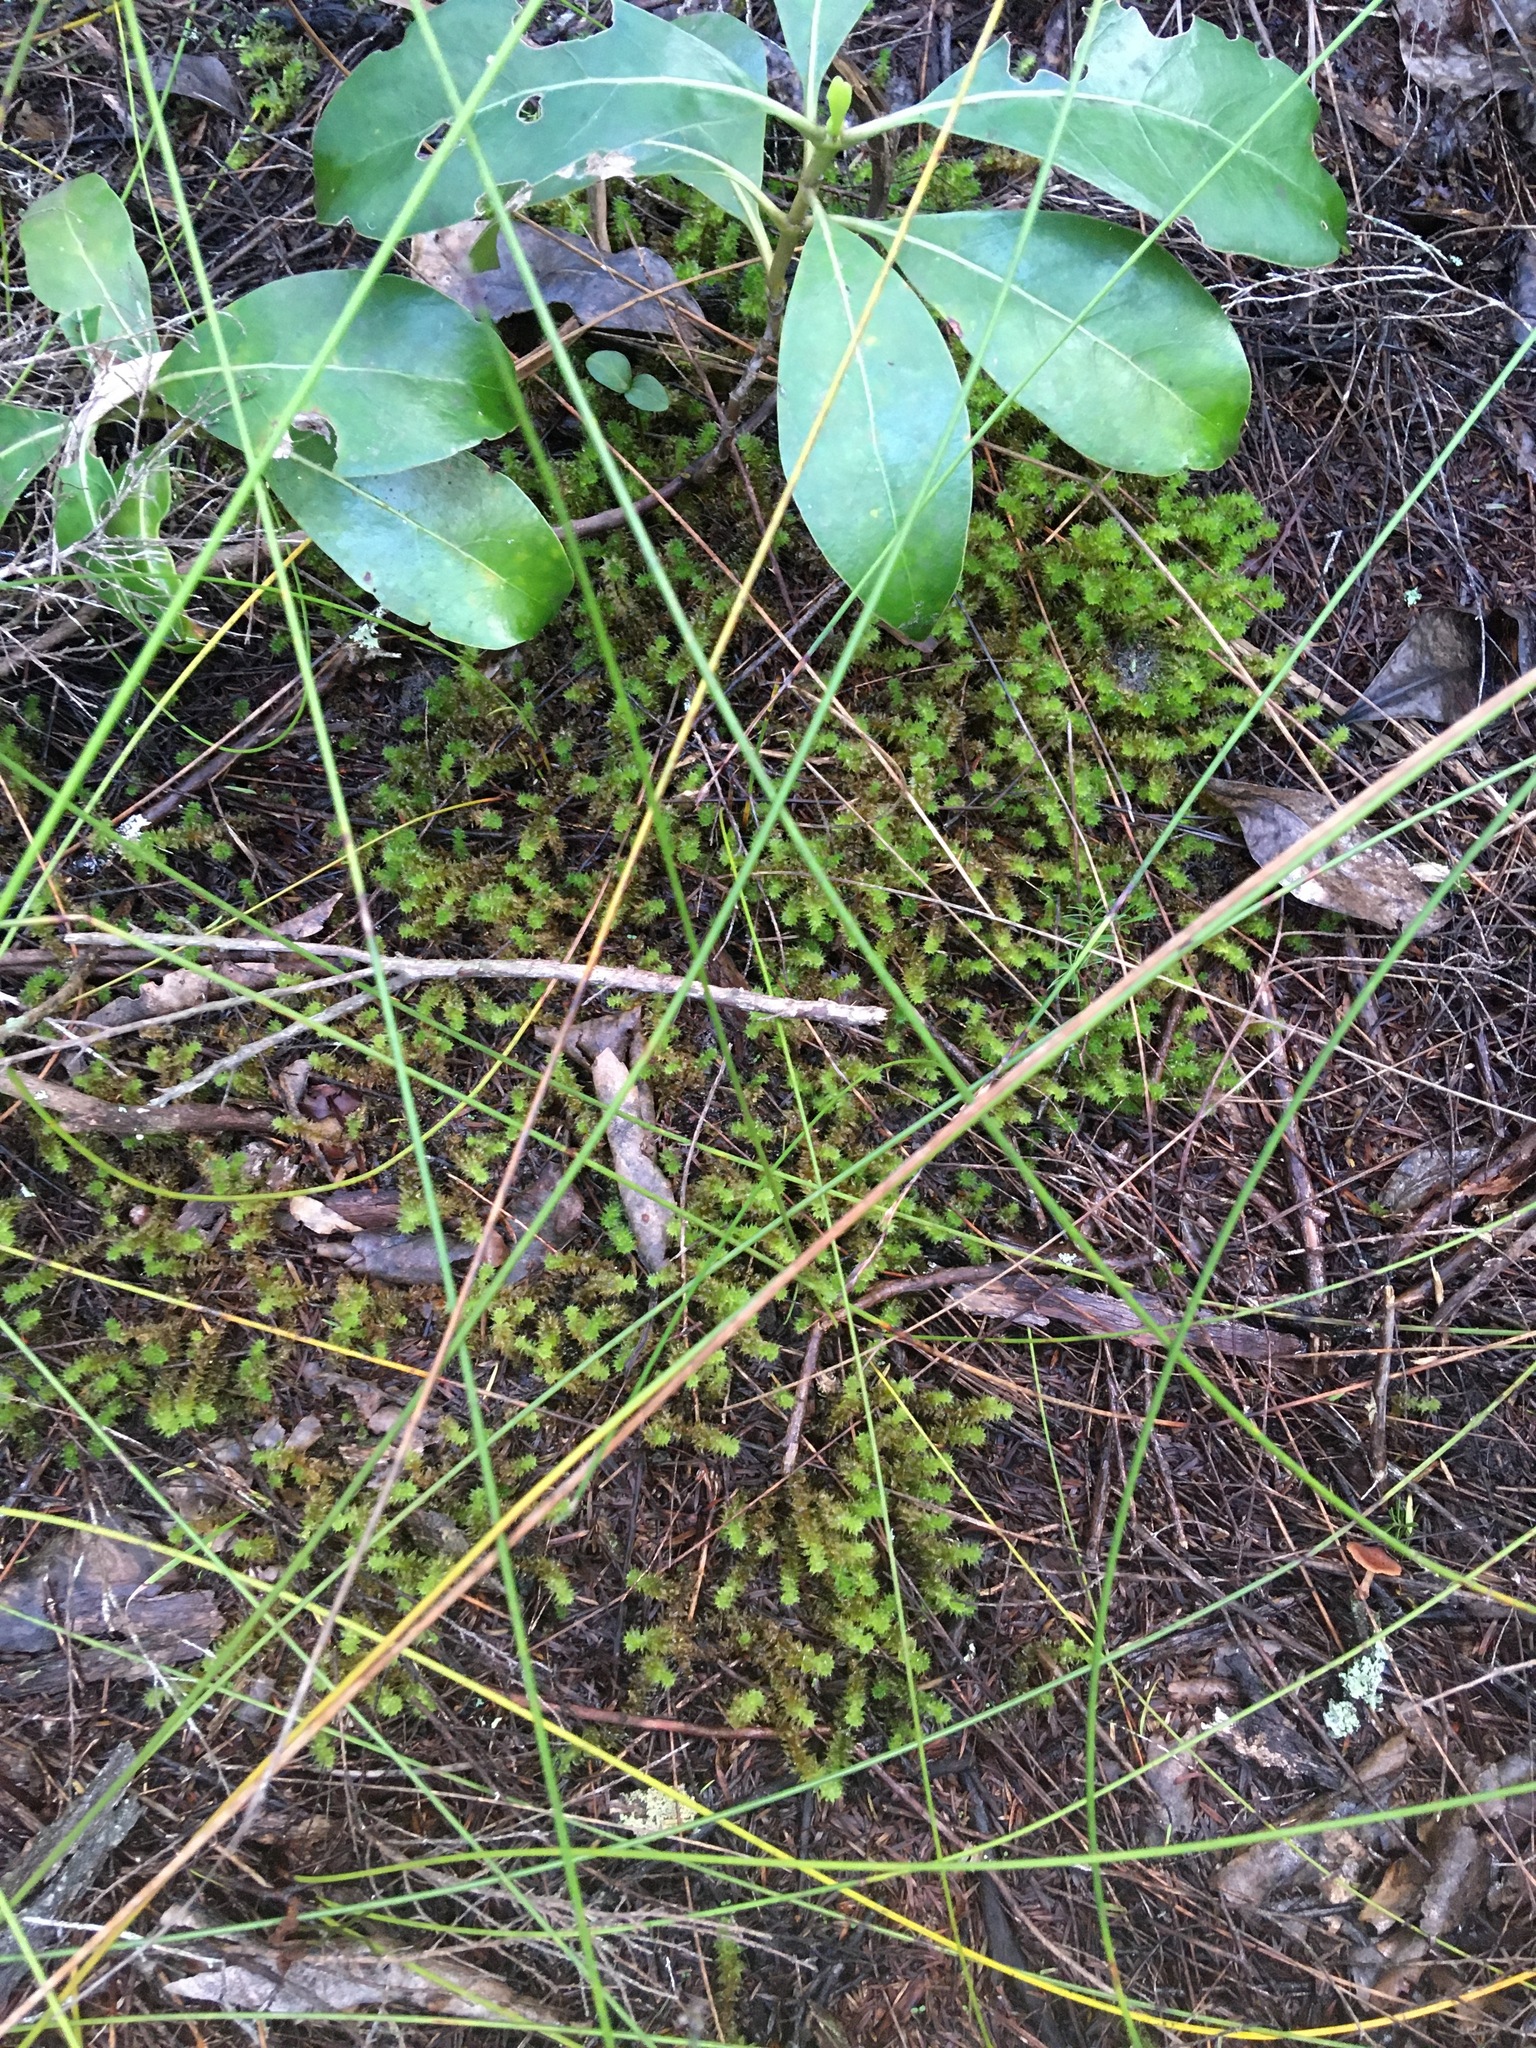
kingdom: Plantae
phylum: Bryophyta
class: Bryopsida
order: Ptychomniales
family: Ptychomniaceae
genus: Ptychomnion
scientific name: Ptychomnion aciculare
